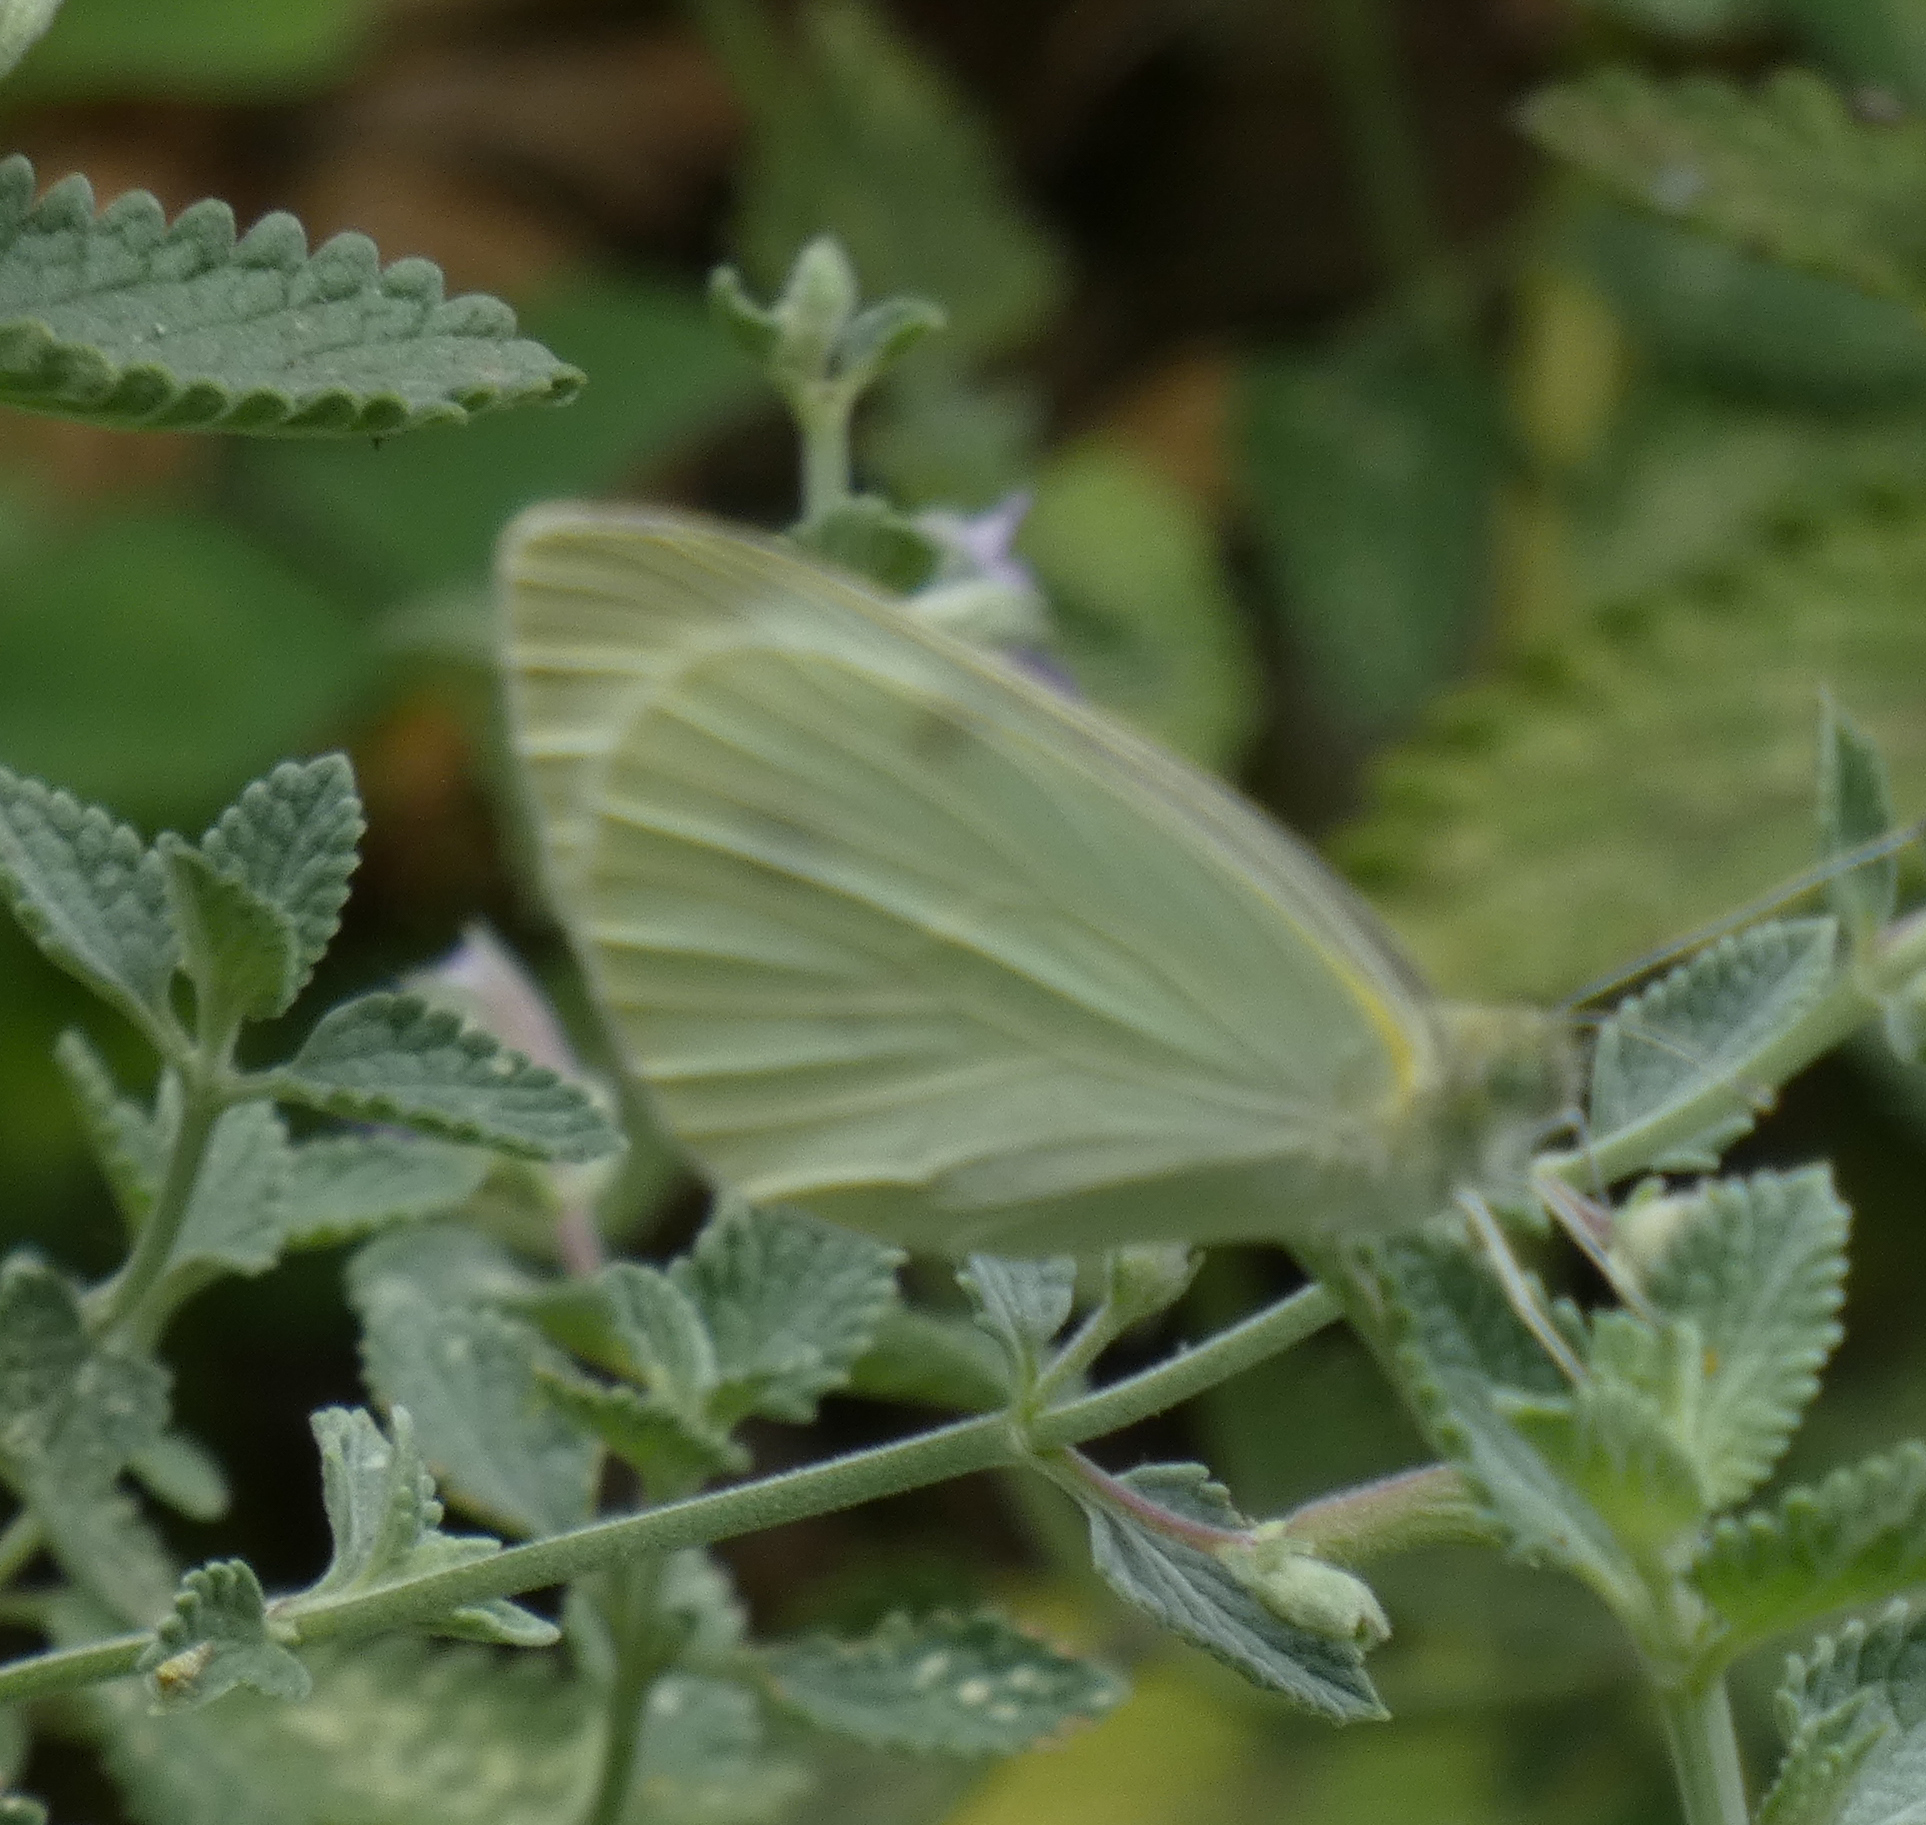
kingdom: Animalia
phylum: Arthropoda
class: Insecta
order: Lepidoptera
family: Pieridae
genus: Pieris
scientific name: Pieris rapae
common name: Small white
